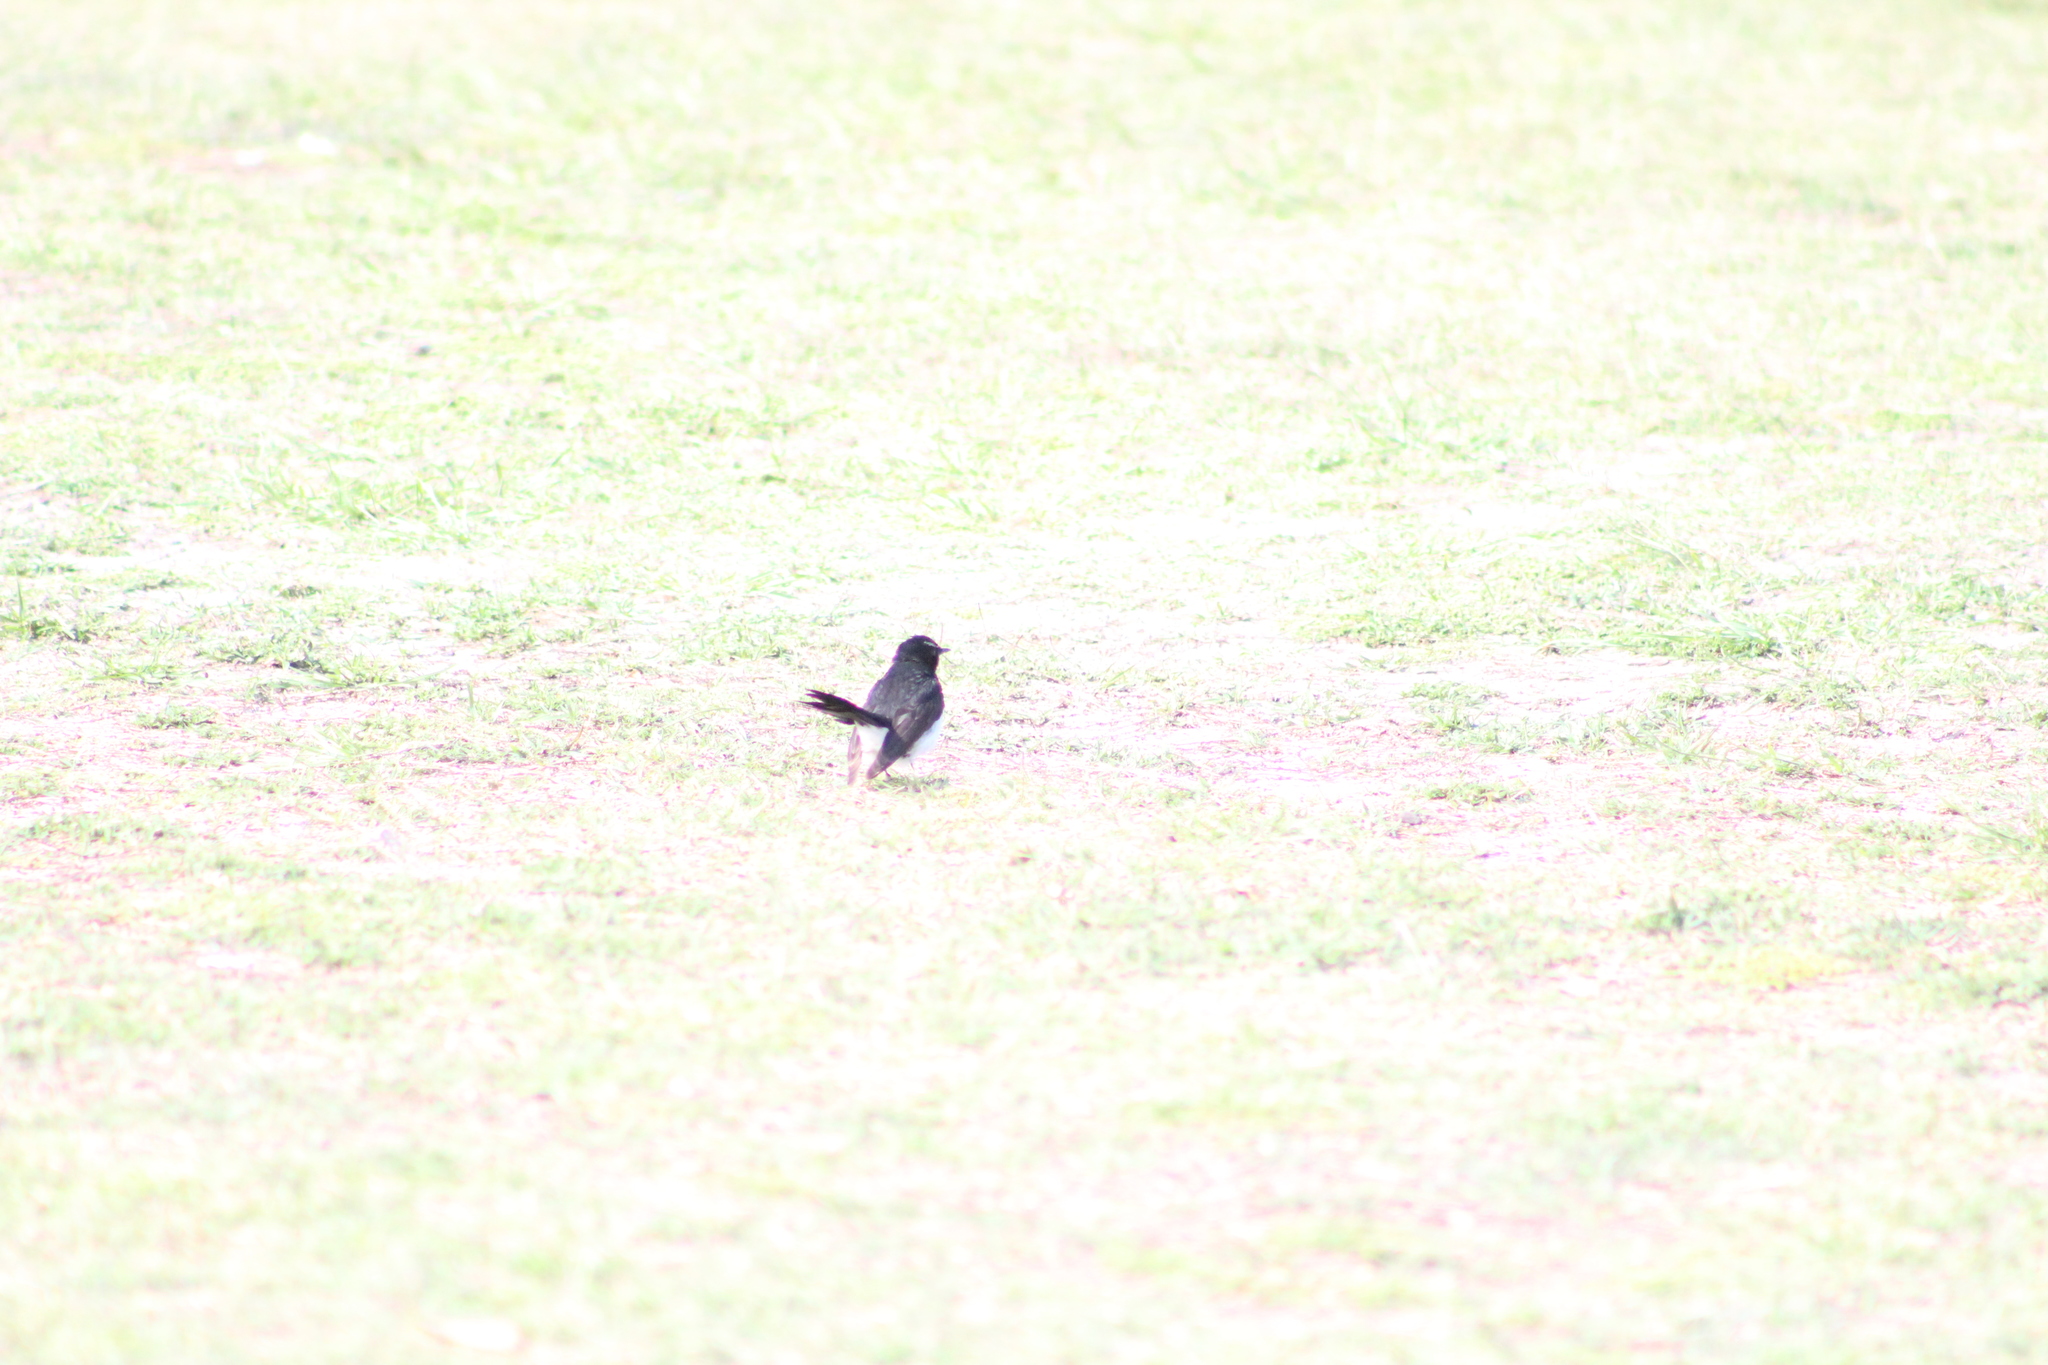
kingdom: Animalia
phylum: Chordata
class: Aves
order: Passeriformes
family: Rhipiduridae
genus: Rhipidura
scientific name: Rhipidura leucophrys
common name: Willie wagtail
